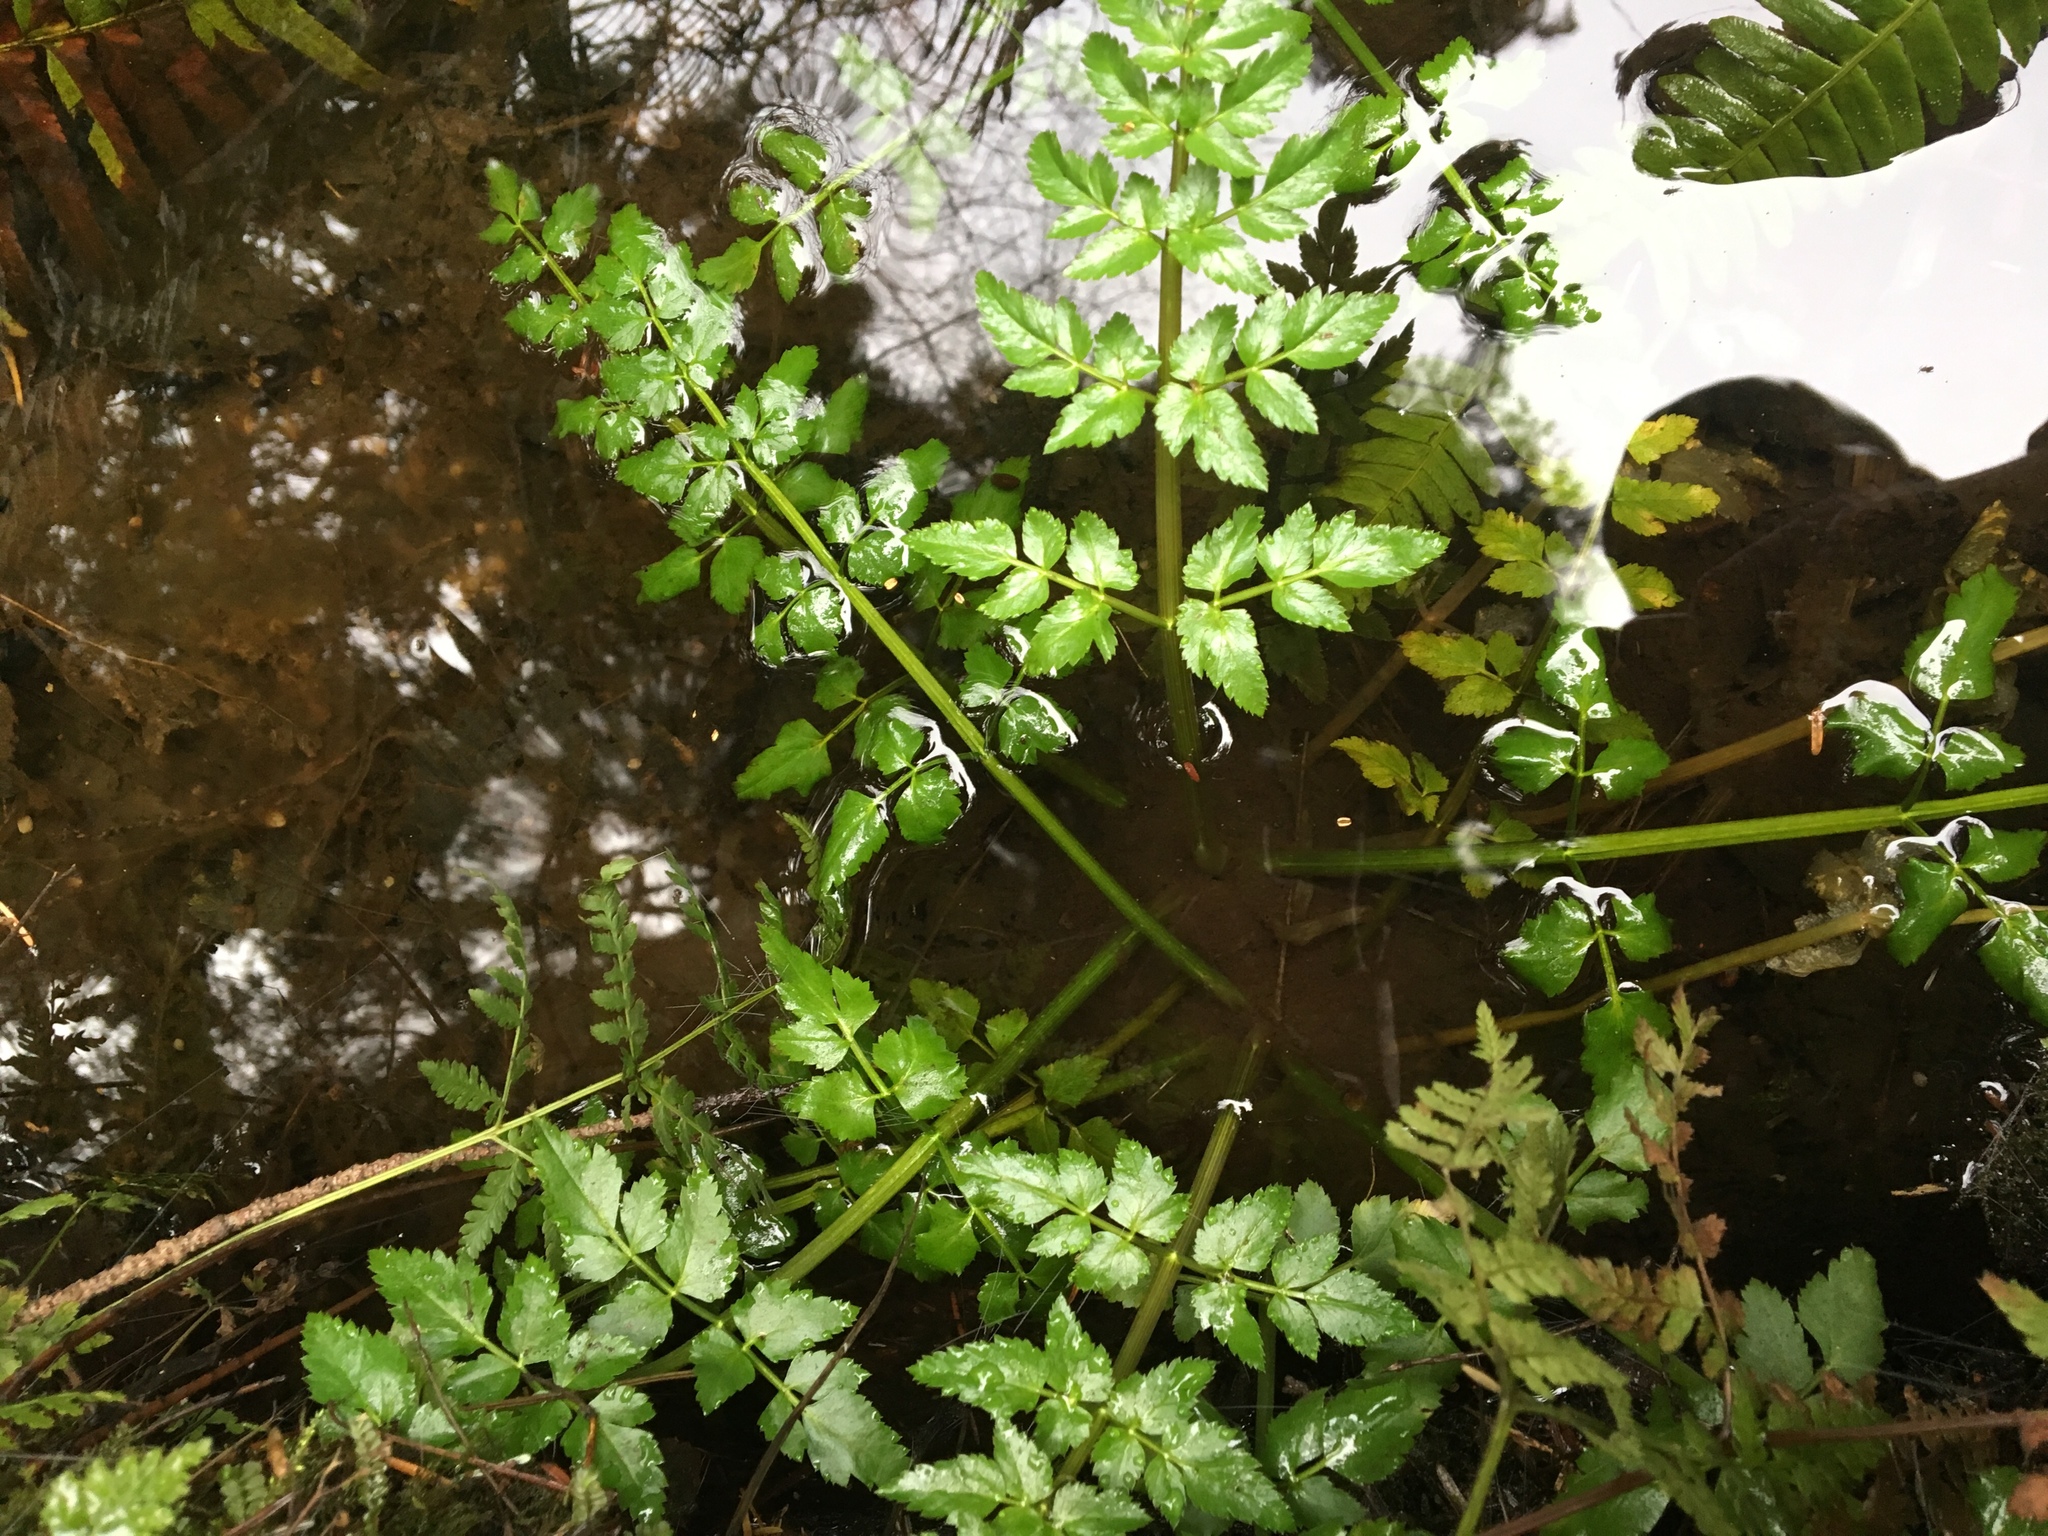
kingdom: Plantae
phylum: Tracheophyta
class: Magnoliopsida
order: Apiales
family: Apiaceae
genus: Oenanthe
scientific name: Oenanthe sarmentosa
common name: American water-parsley
